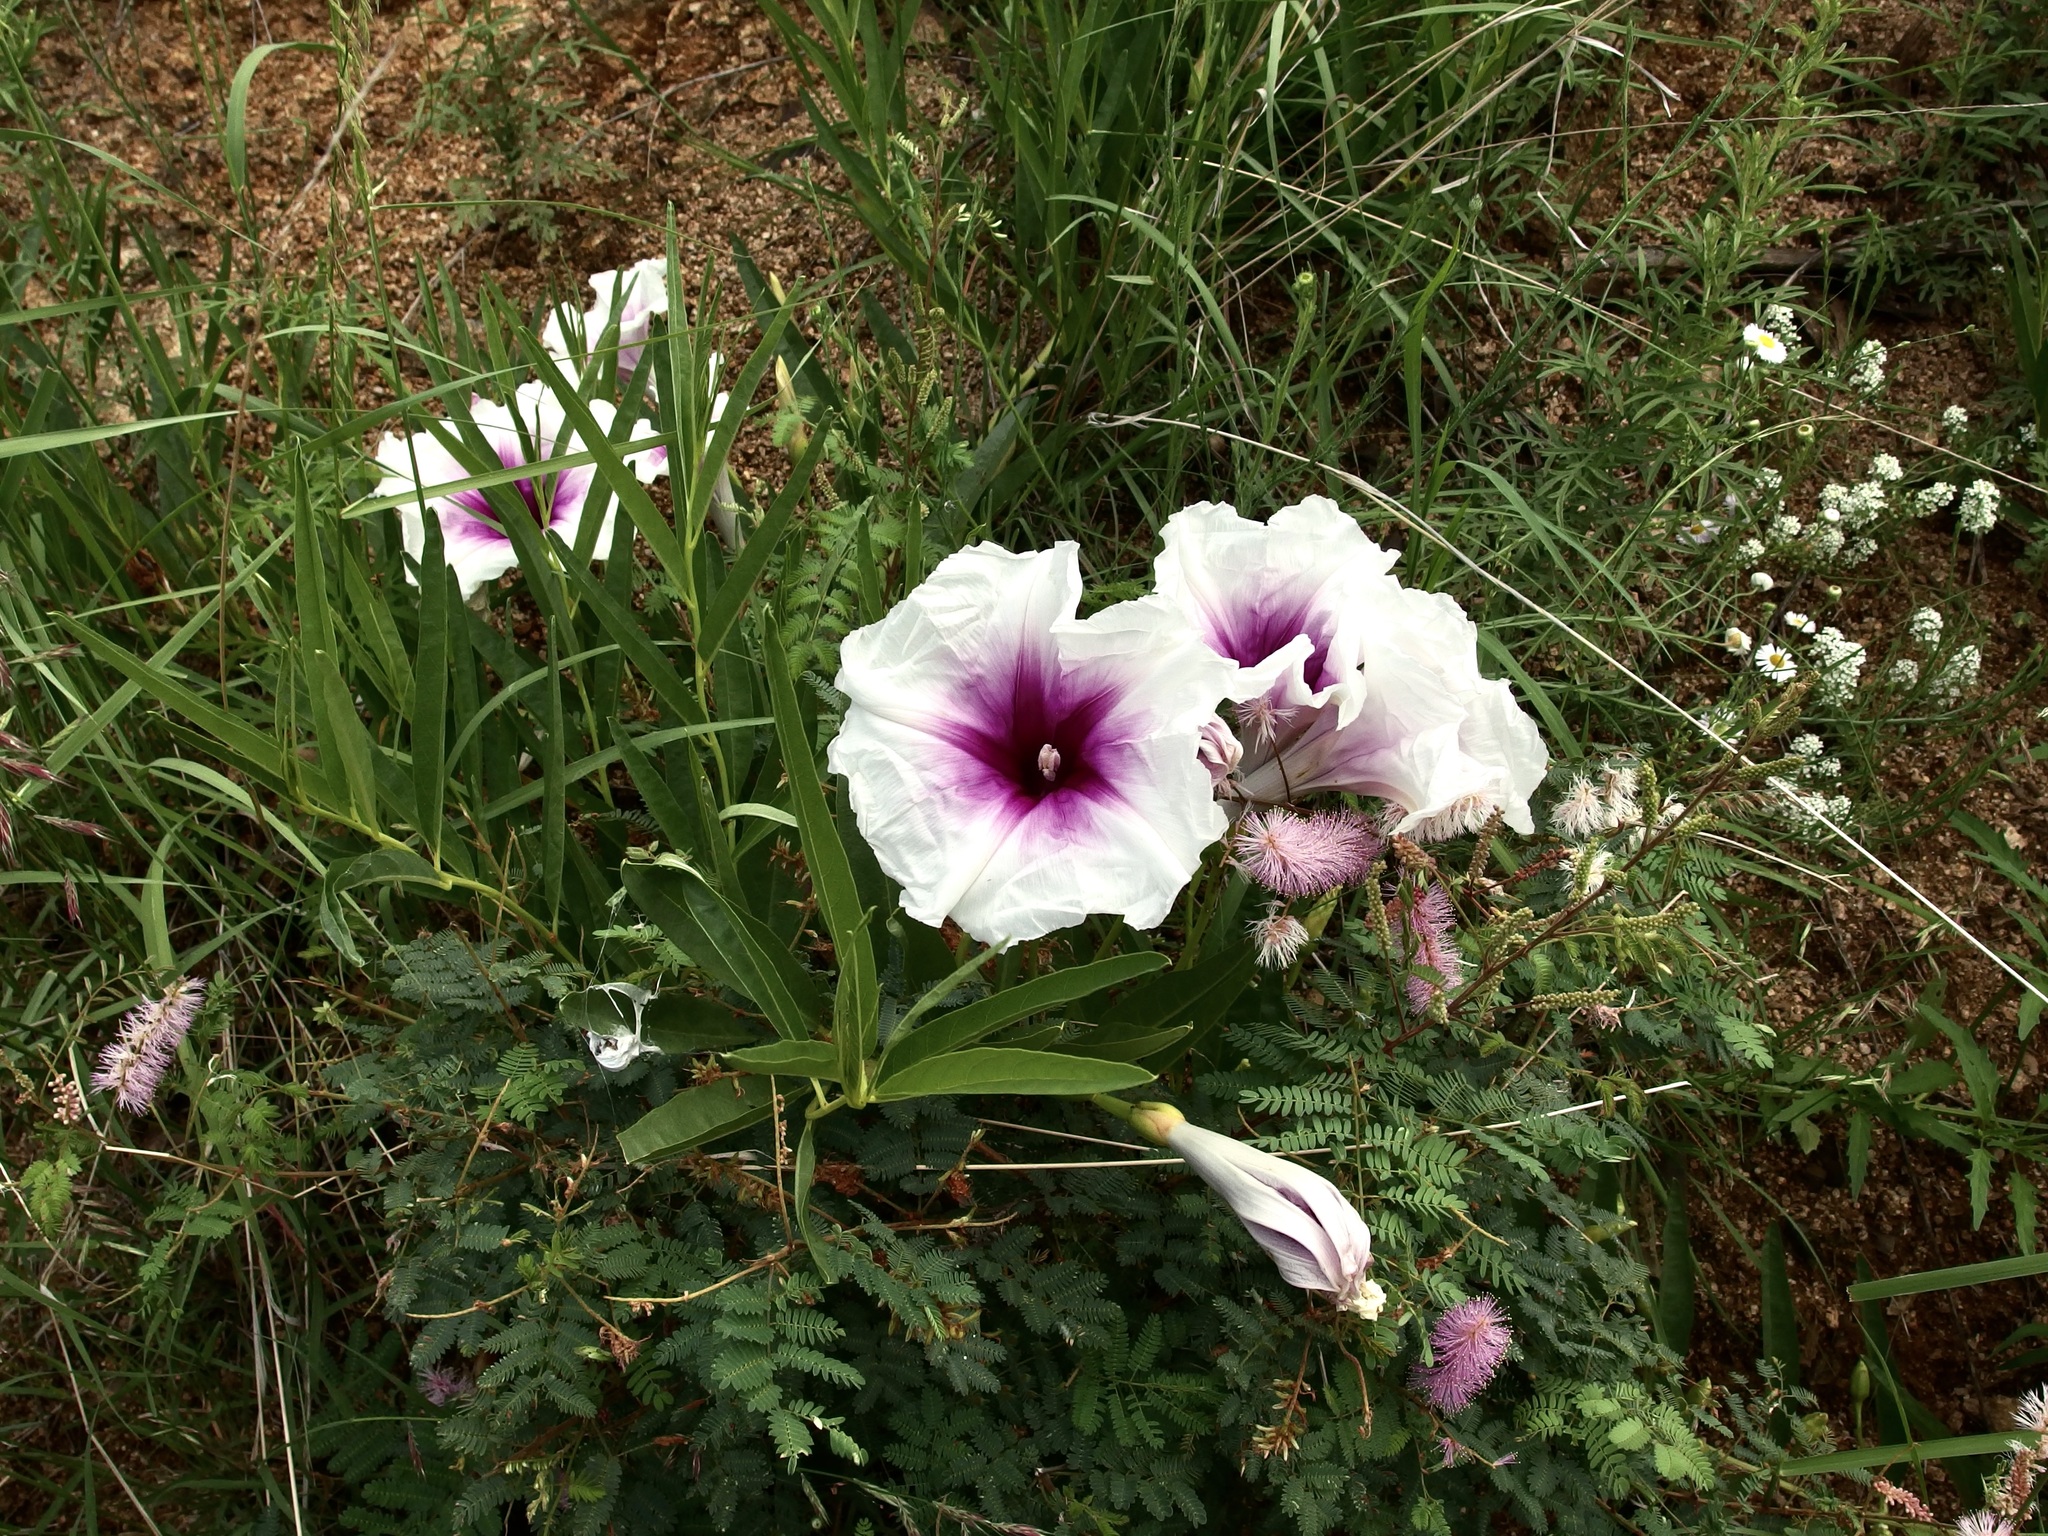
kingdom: Plantae
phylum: Tracheophyta
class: Magnoliopsida
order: Solanales
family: Convolvulaceae
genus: Ipomoea
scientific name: Ipomoea longifolia
